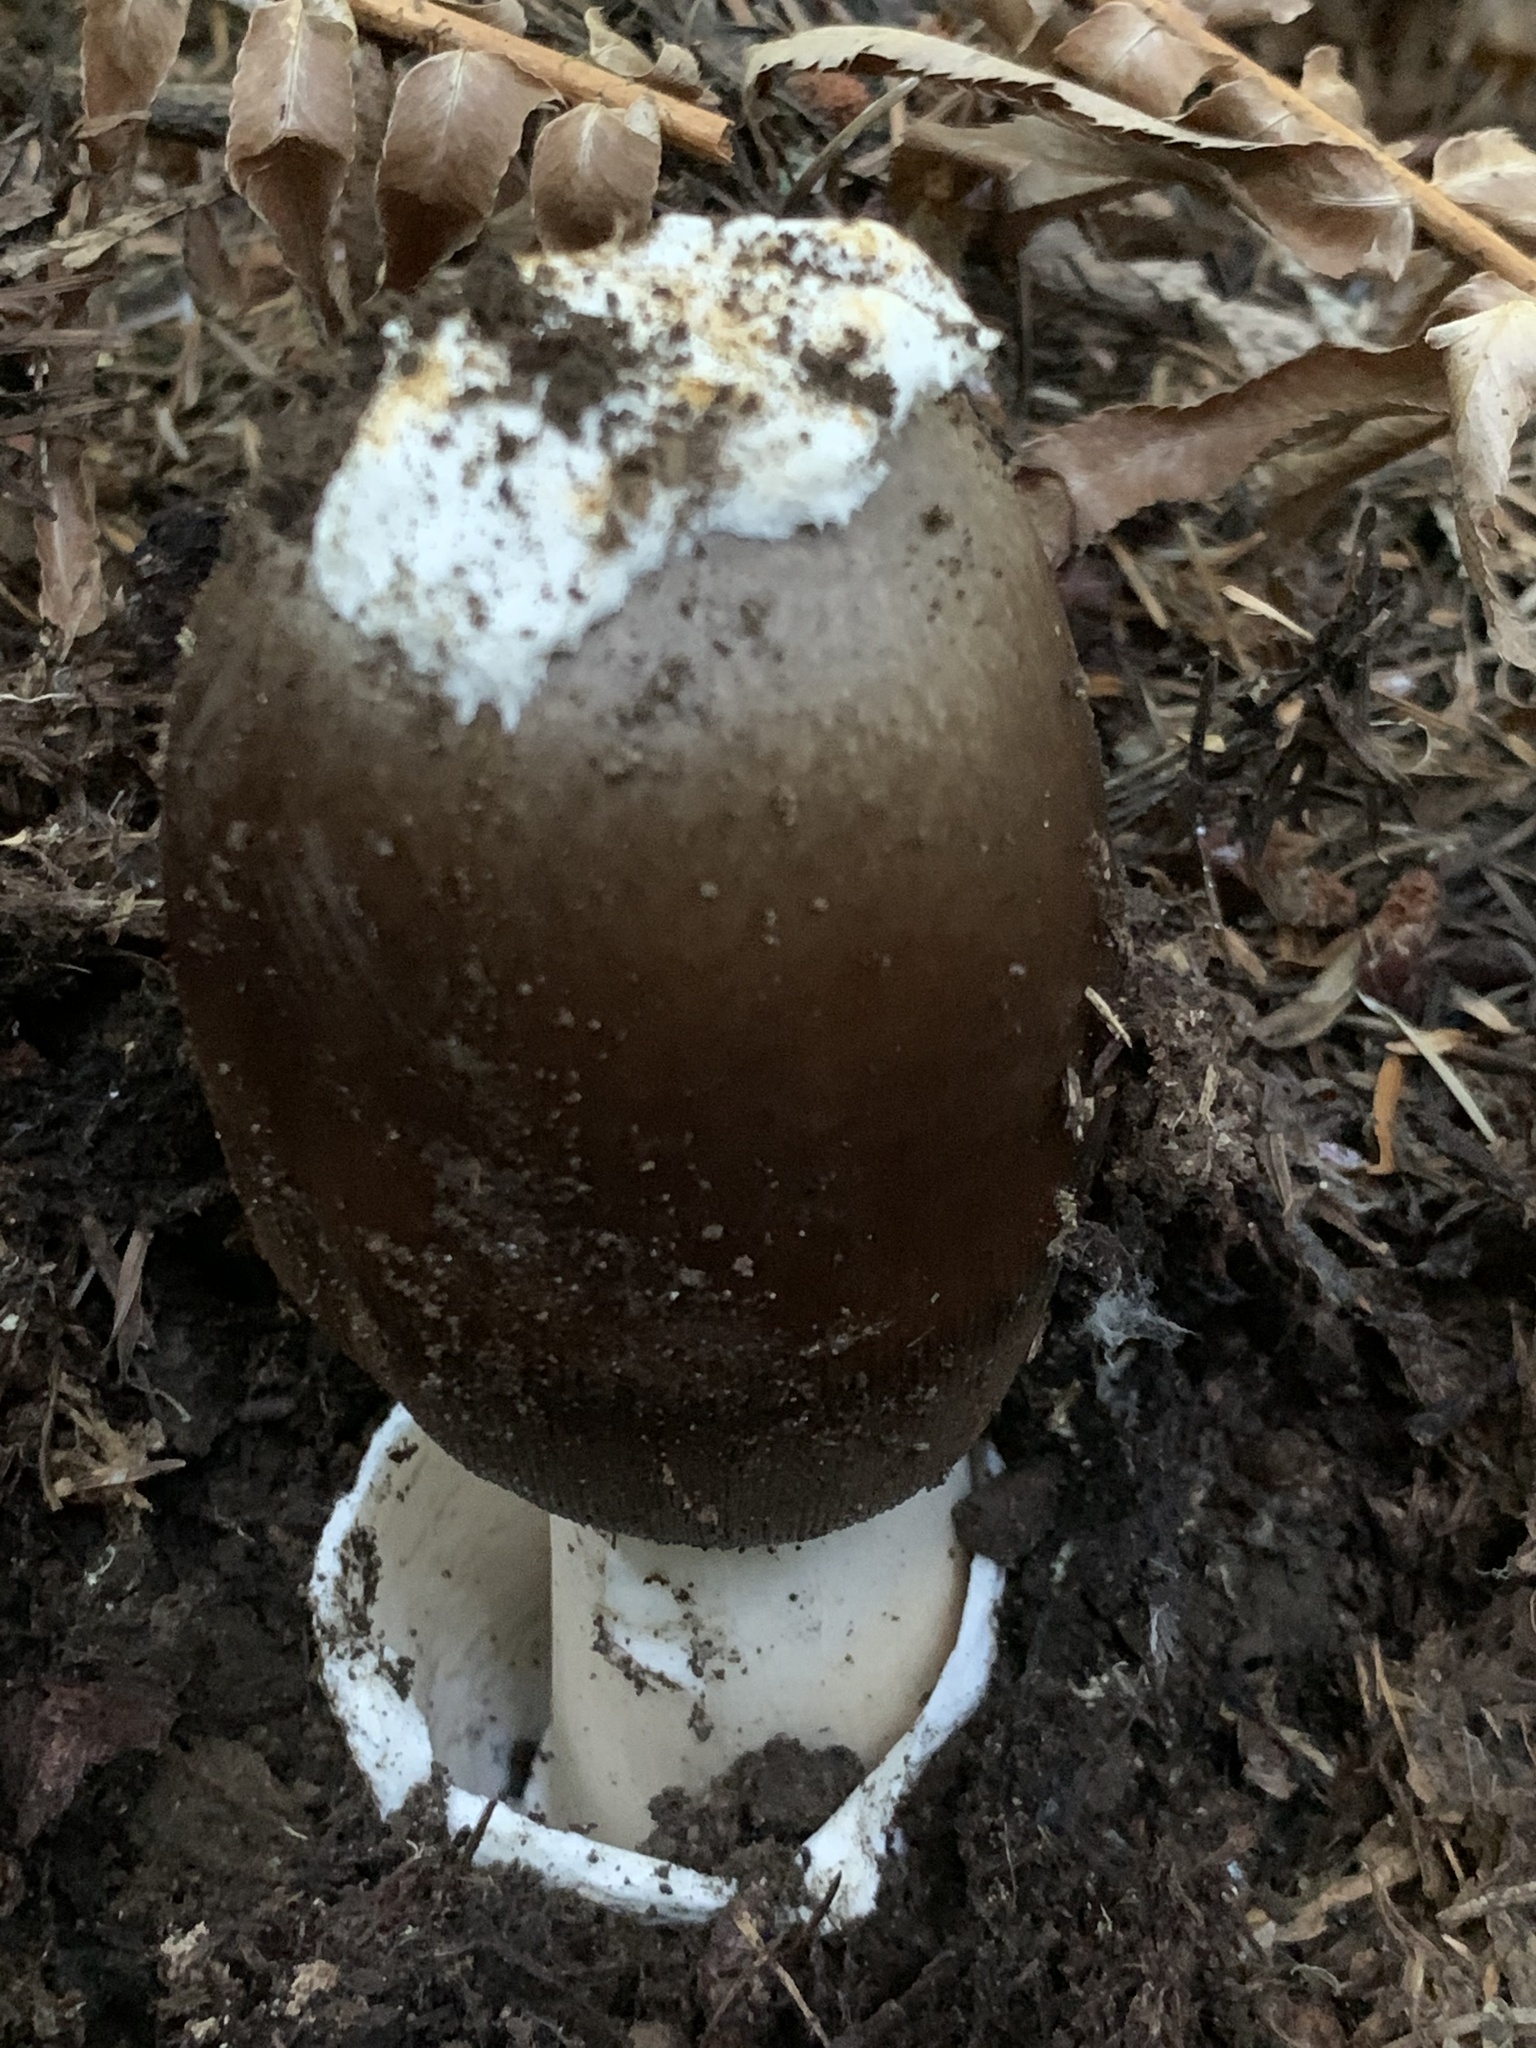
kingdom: Fungi
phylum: Basidiomycota
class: Agaricomycetes
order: Agaricales
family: Amanitaceae
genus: Amanita
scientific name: Amanita pachycolea
